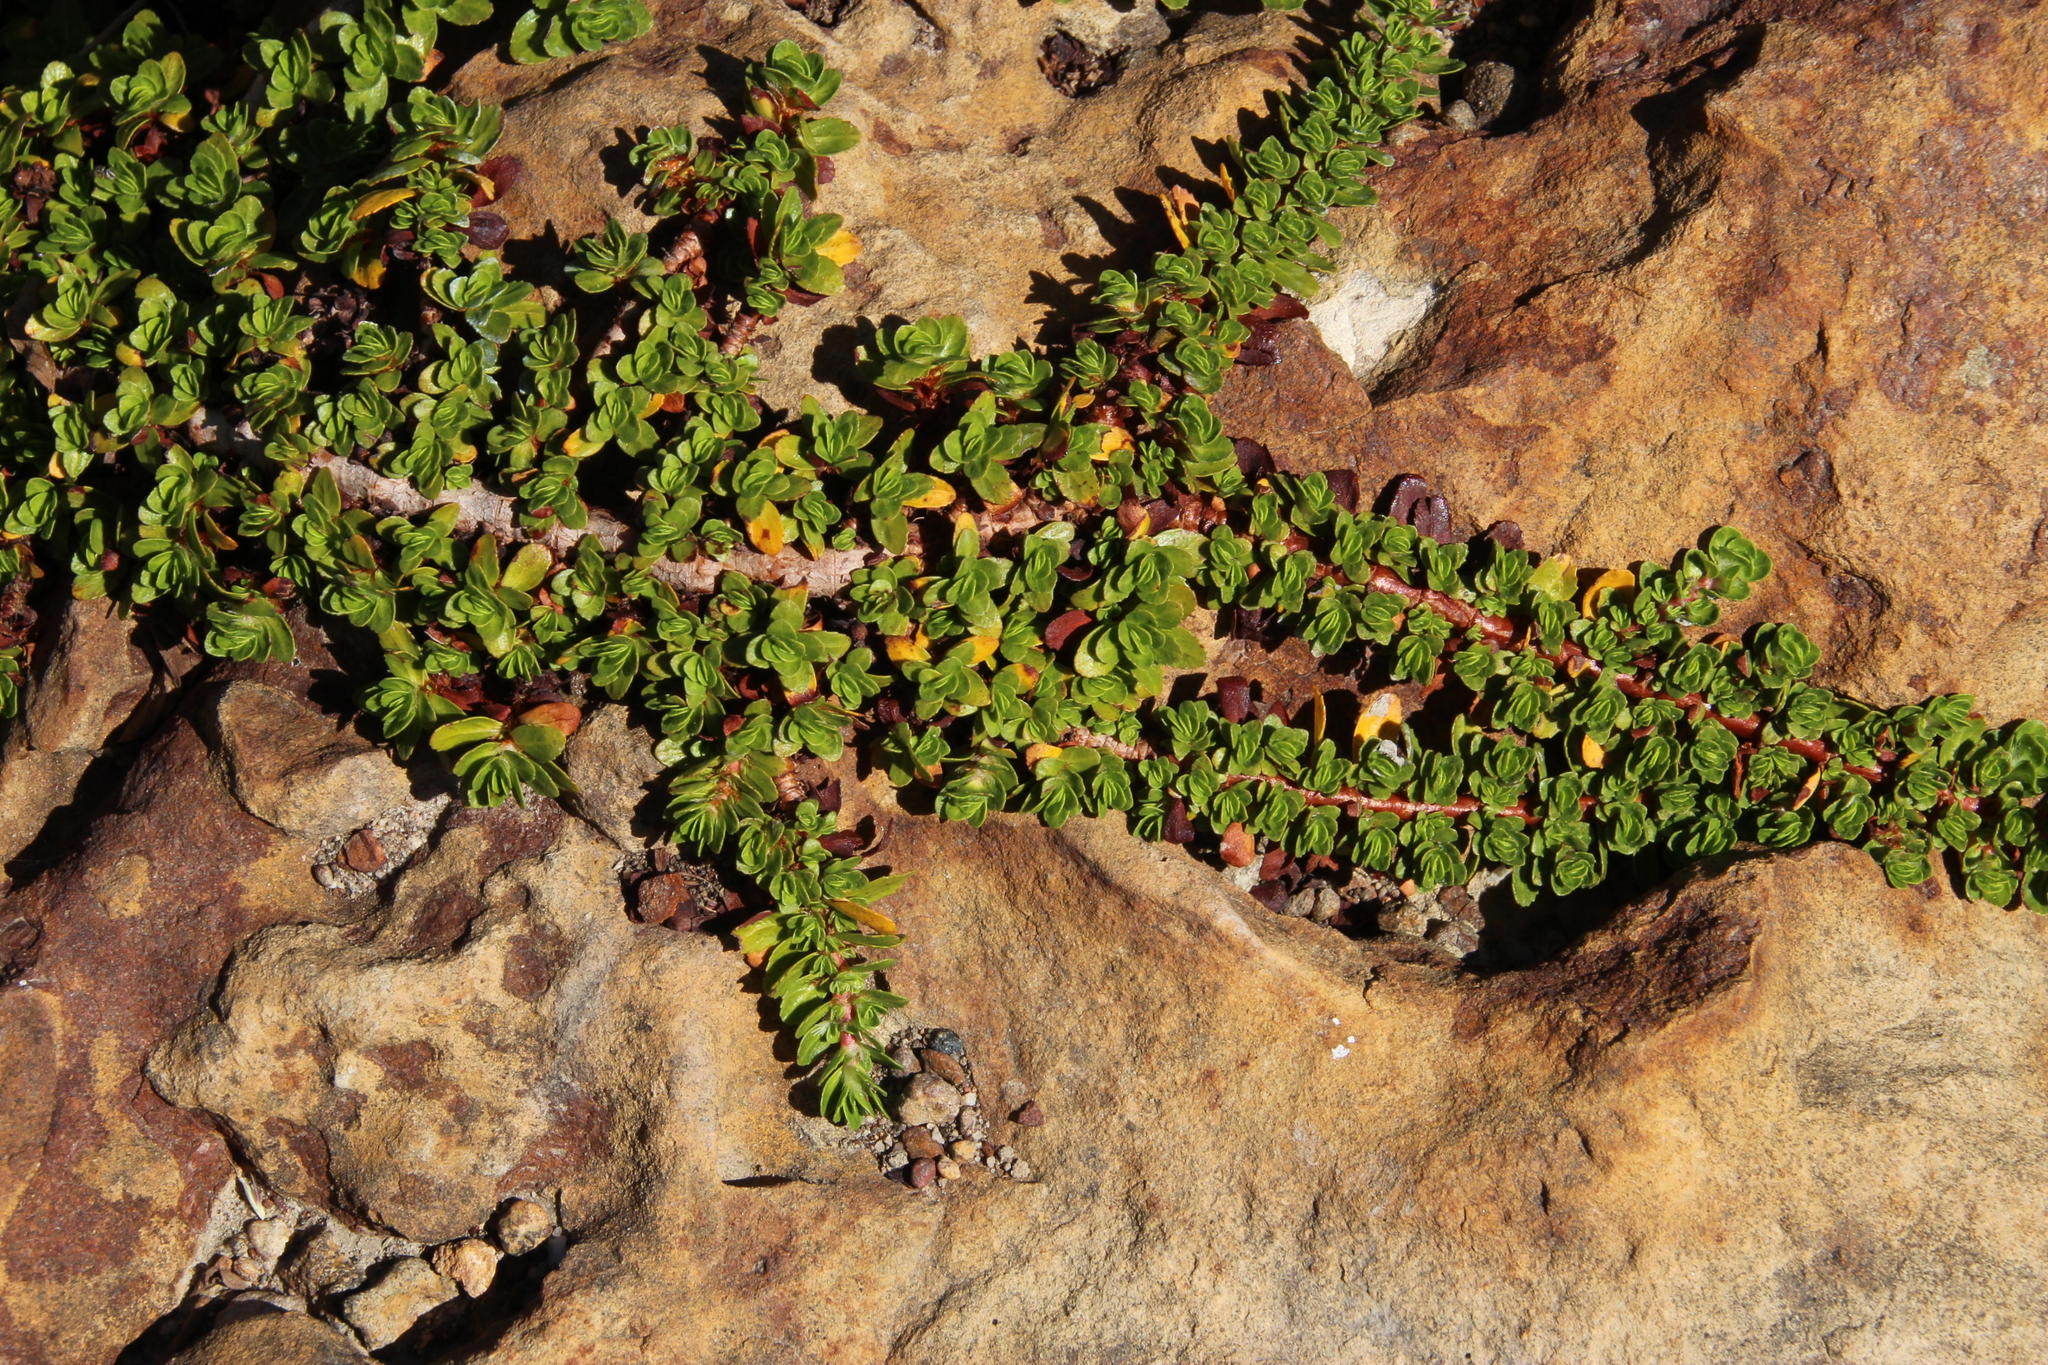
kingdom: Plantae
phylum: Tracheophyta
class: Magnoliopsida
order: Malpighiales
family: Elatinaceae
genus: Bergia
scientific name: Bergia glomerata
